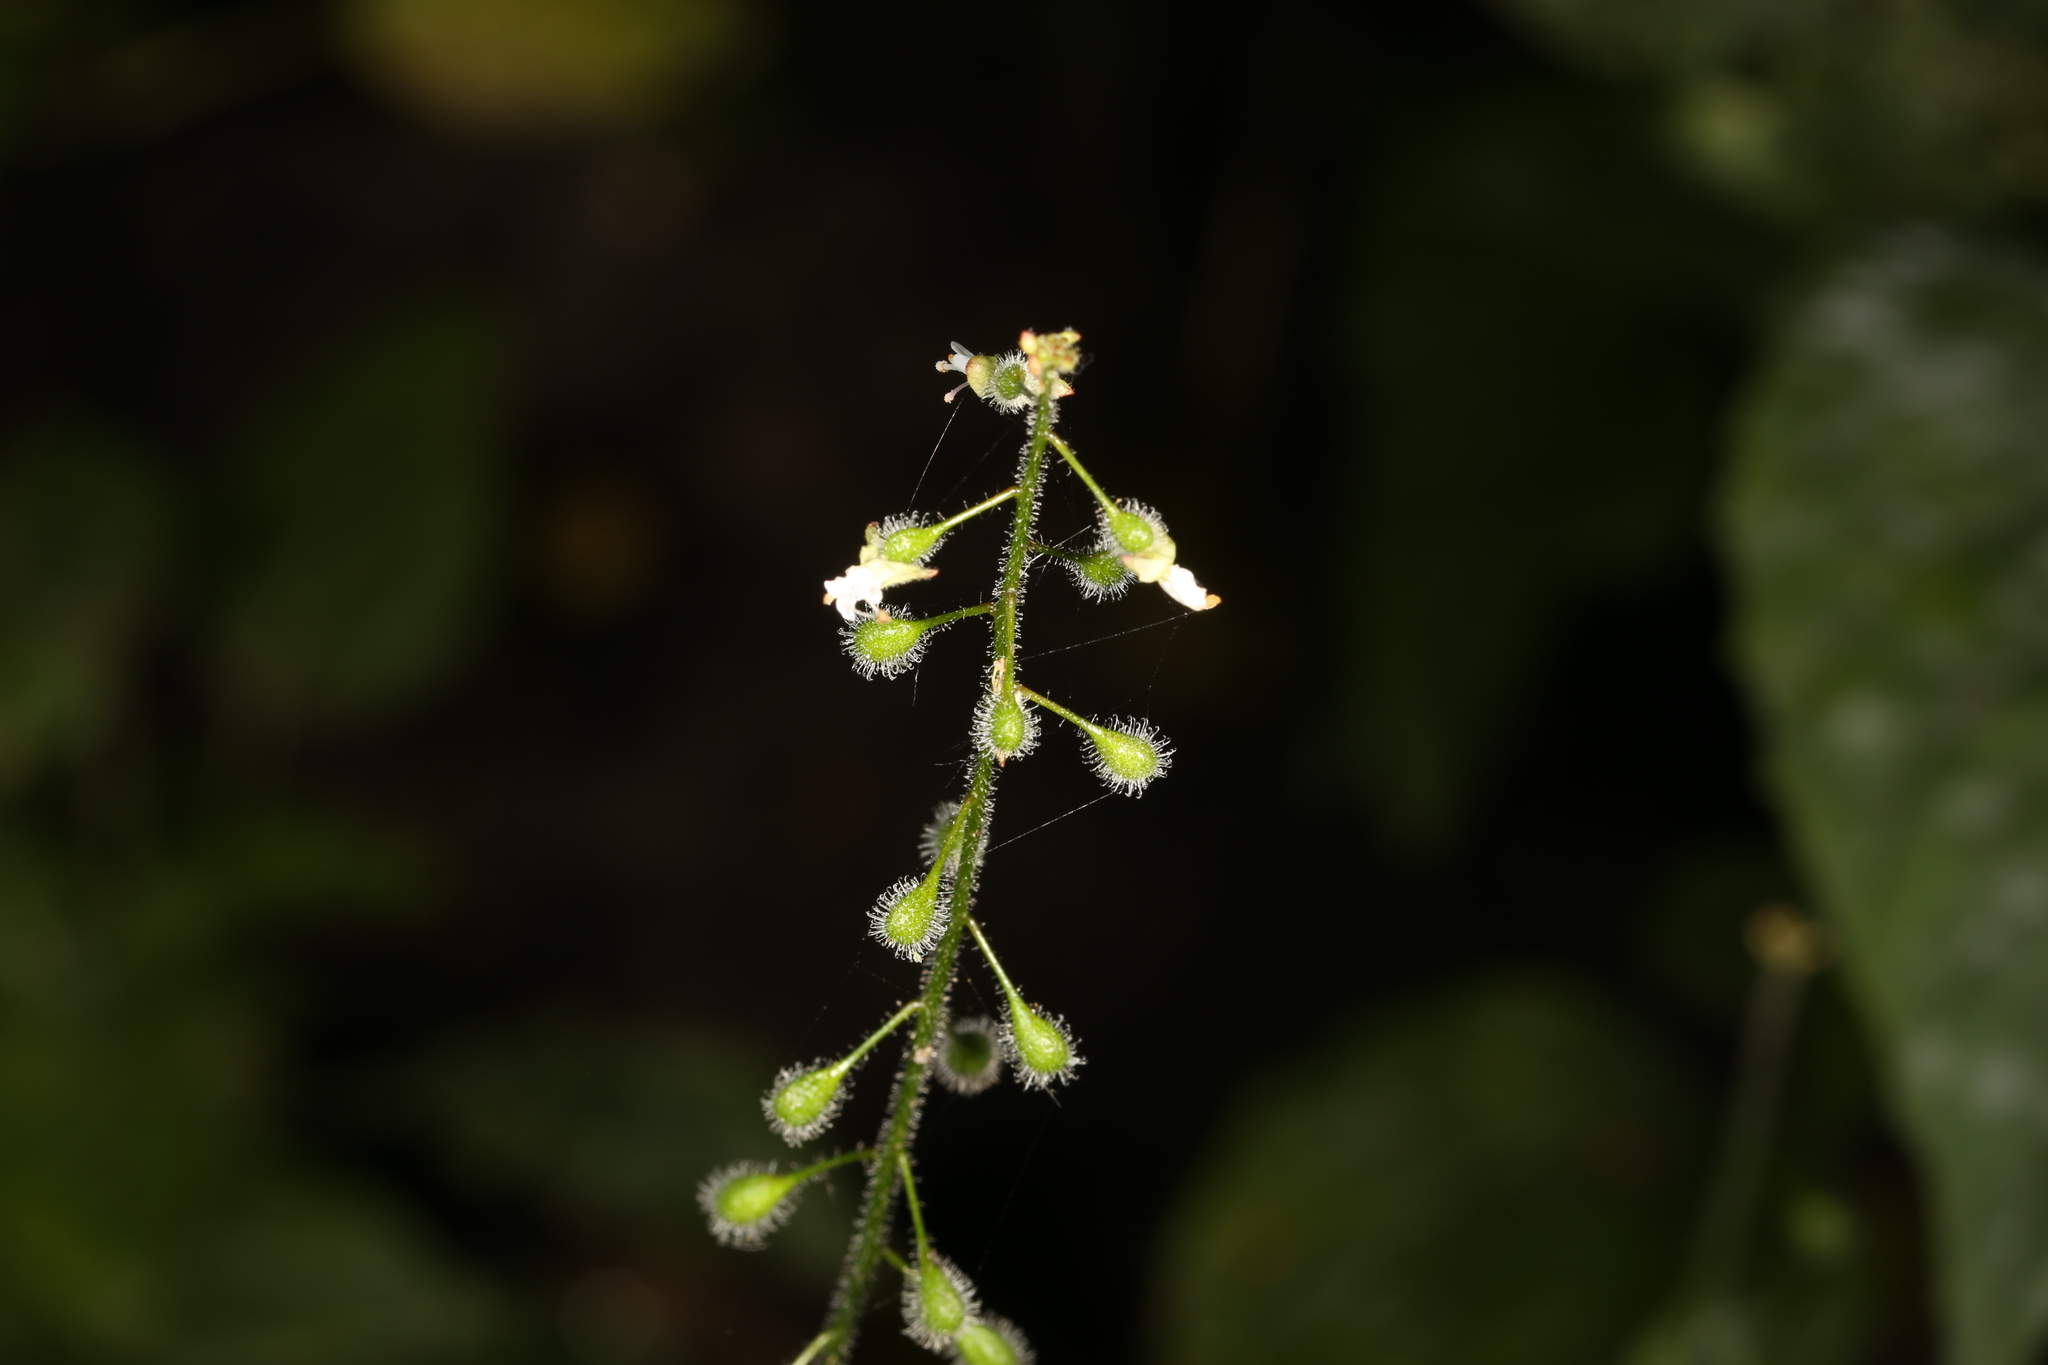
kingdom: Plantae
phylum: Tracheophyta
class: Magnoliopsida
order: Myrtales
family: Onagraceae
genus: Circaea
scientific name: Circaea lutetiana
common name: Enchanter's-nightshade
